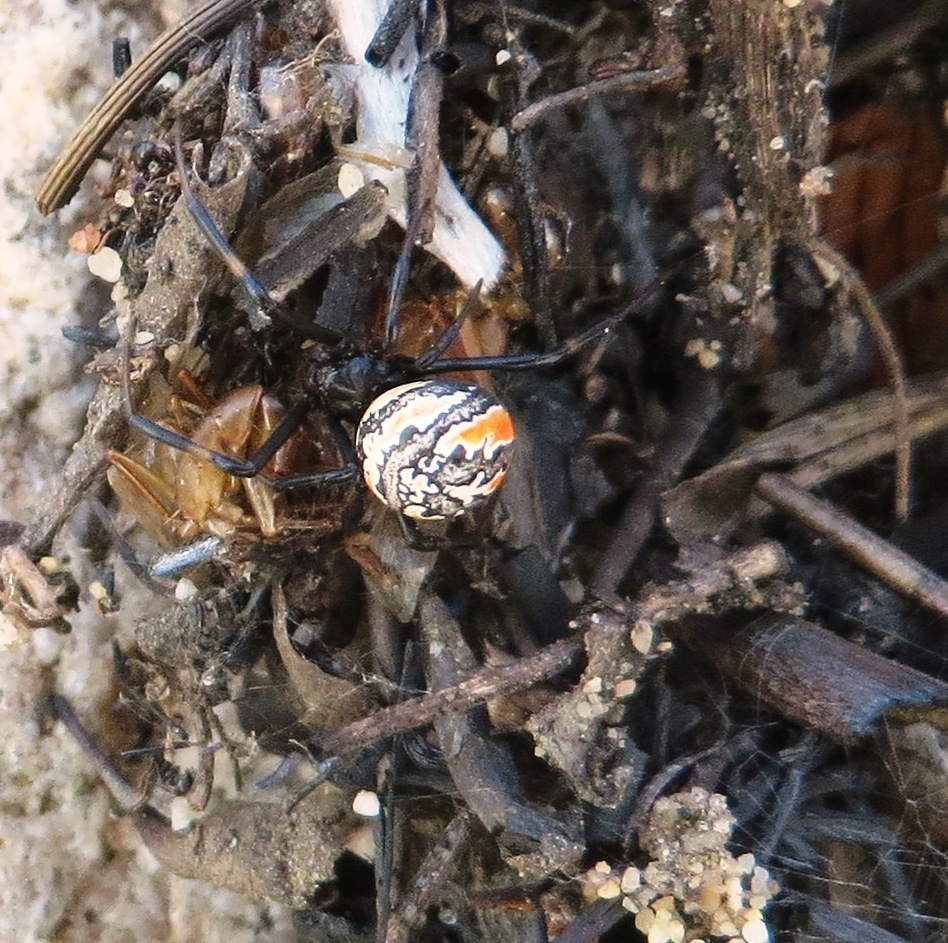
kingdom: Animalia
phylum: Arthropoda
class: Arachnida
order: Araneae
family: Theridiidae
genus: Latrodectus
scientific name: Latrodectus indistinctus
